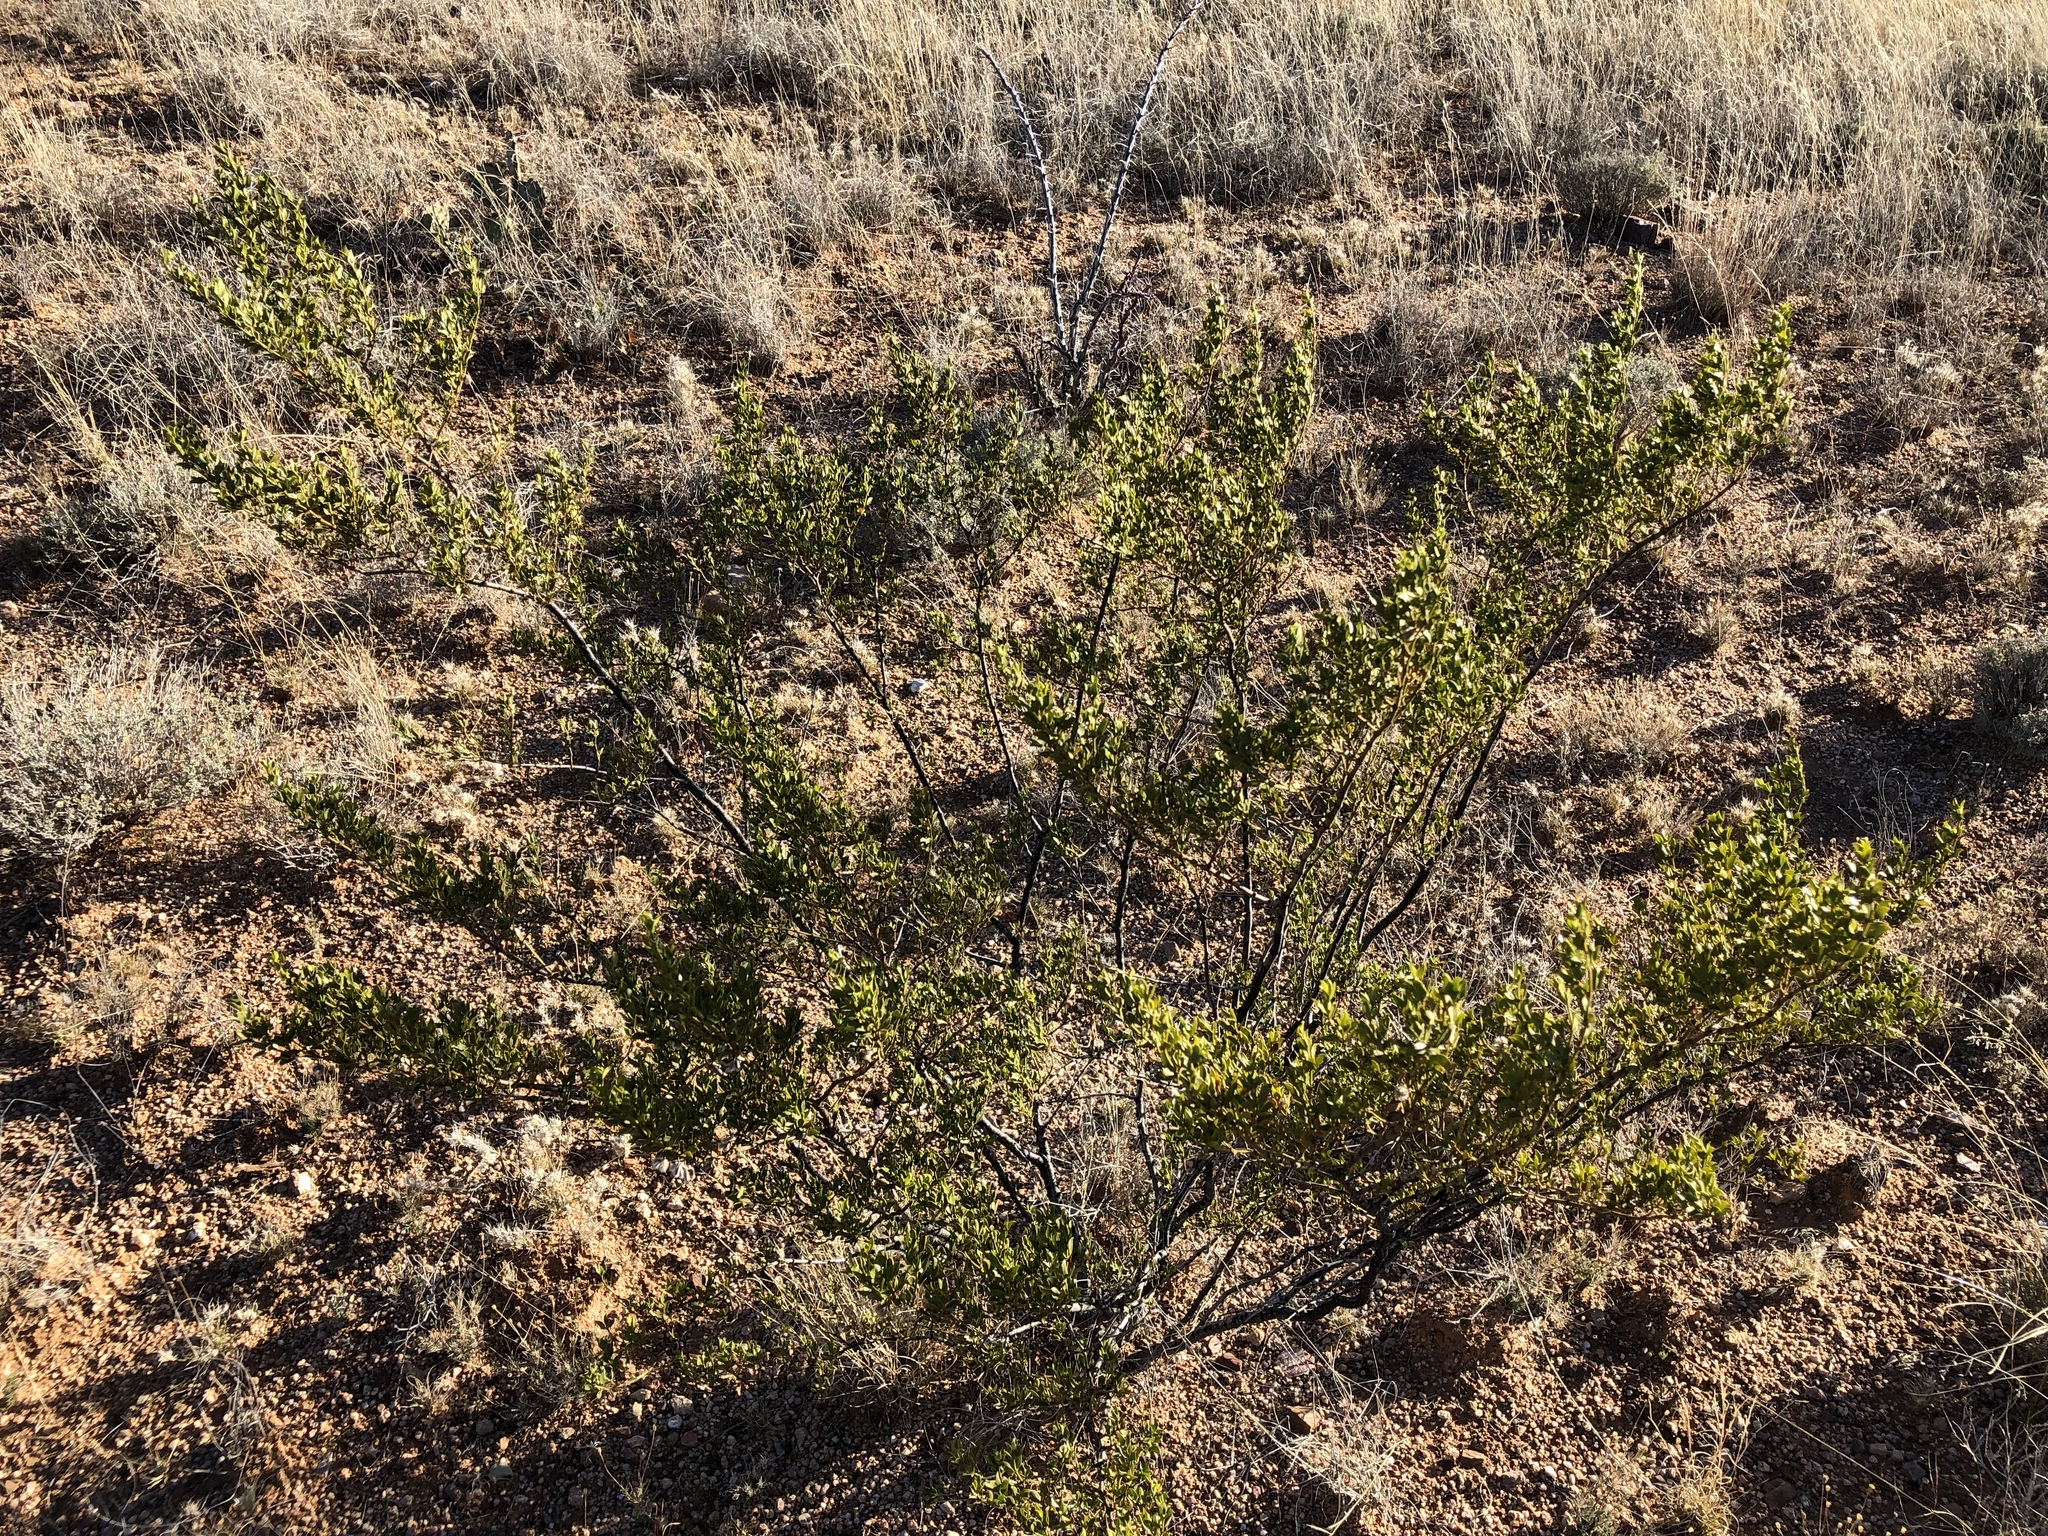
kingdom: Plantae
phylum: Tracheophyta
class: Magnoliopsida
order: Zygophyllales
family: Zygophyllaceae
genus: Larrea
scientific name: Larrea tridentata
